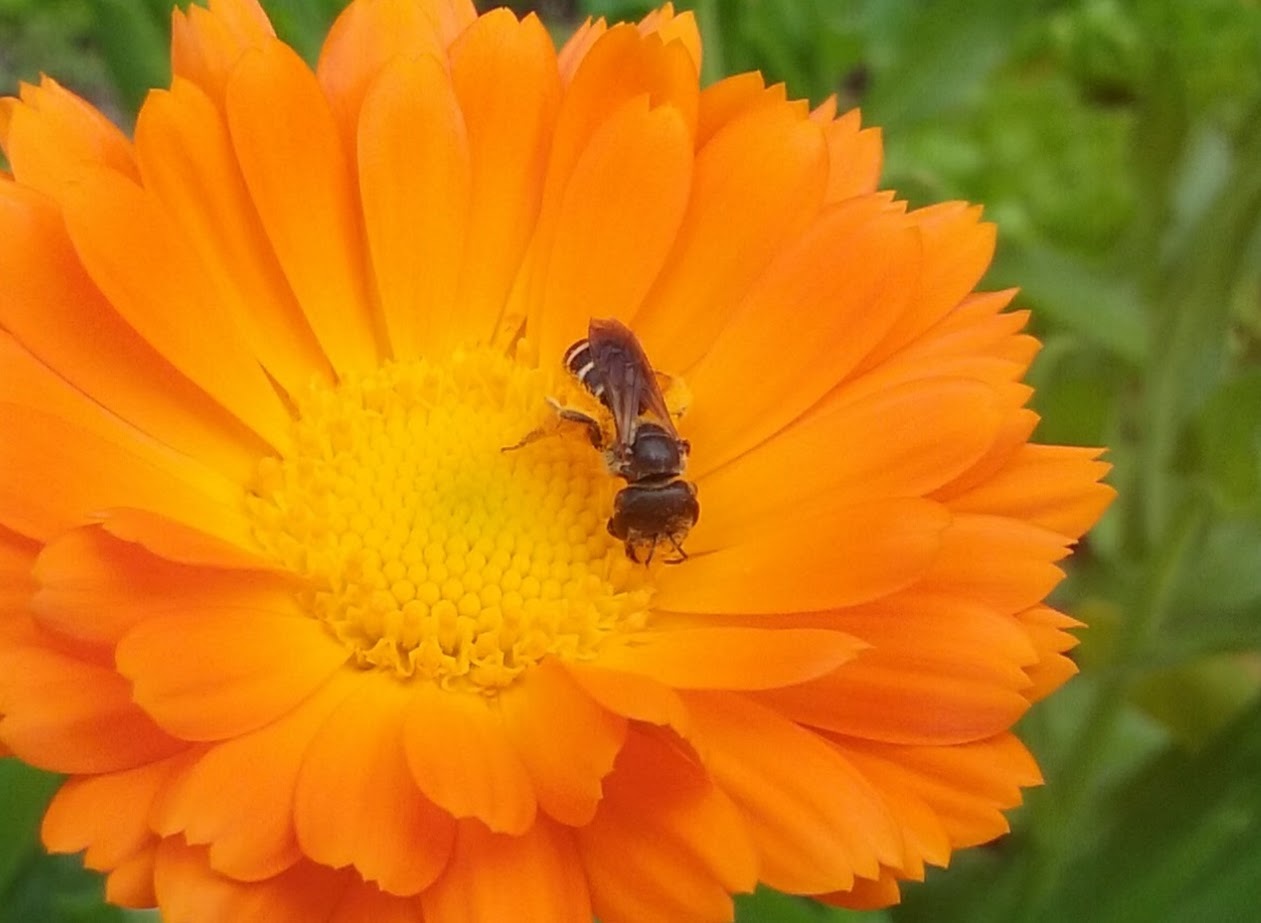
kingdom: Animalia
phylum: Arthropoda
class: Insecta
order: Hymenoptera
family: Halictidae
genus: Halictus
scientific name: Halictus poeyi
